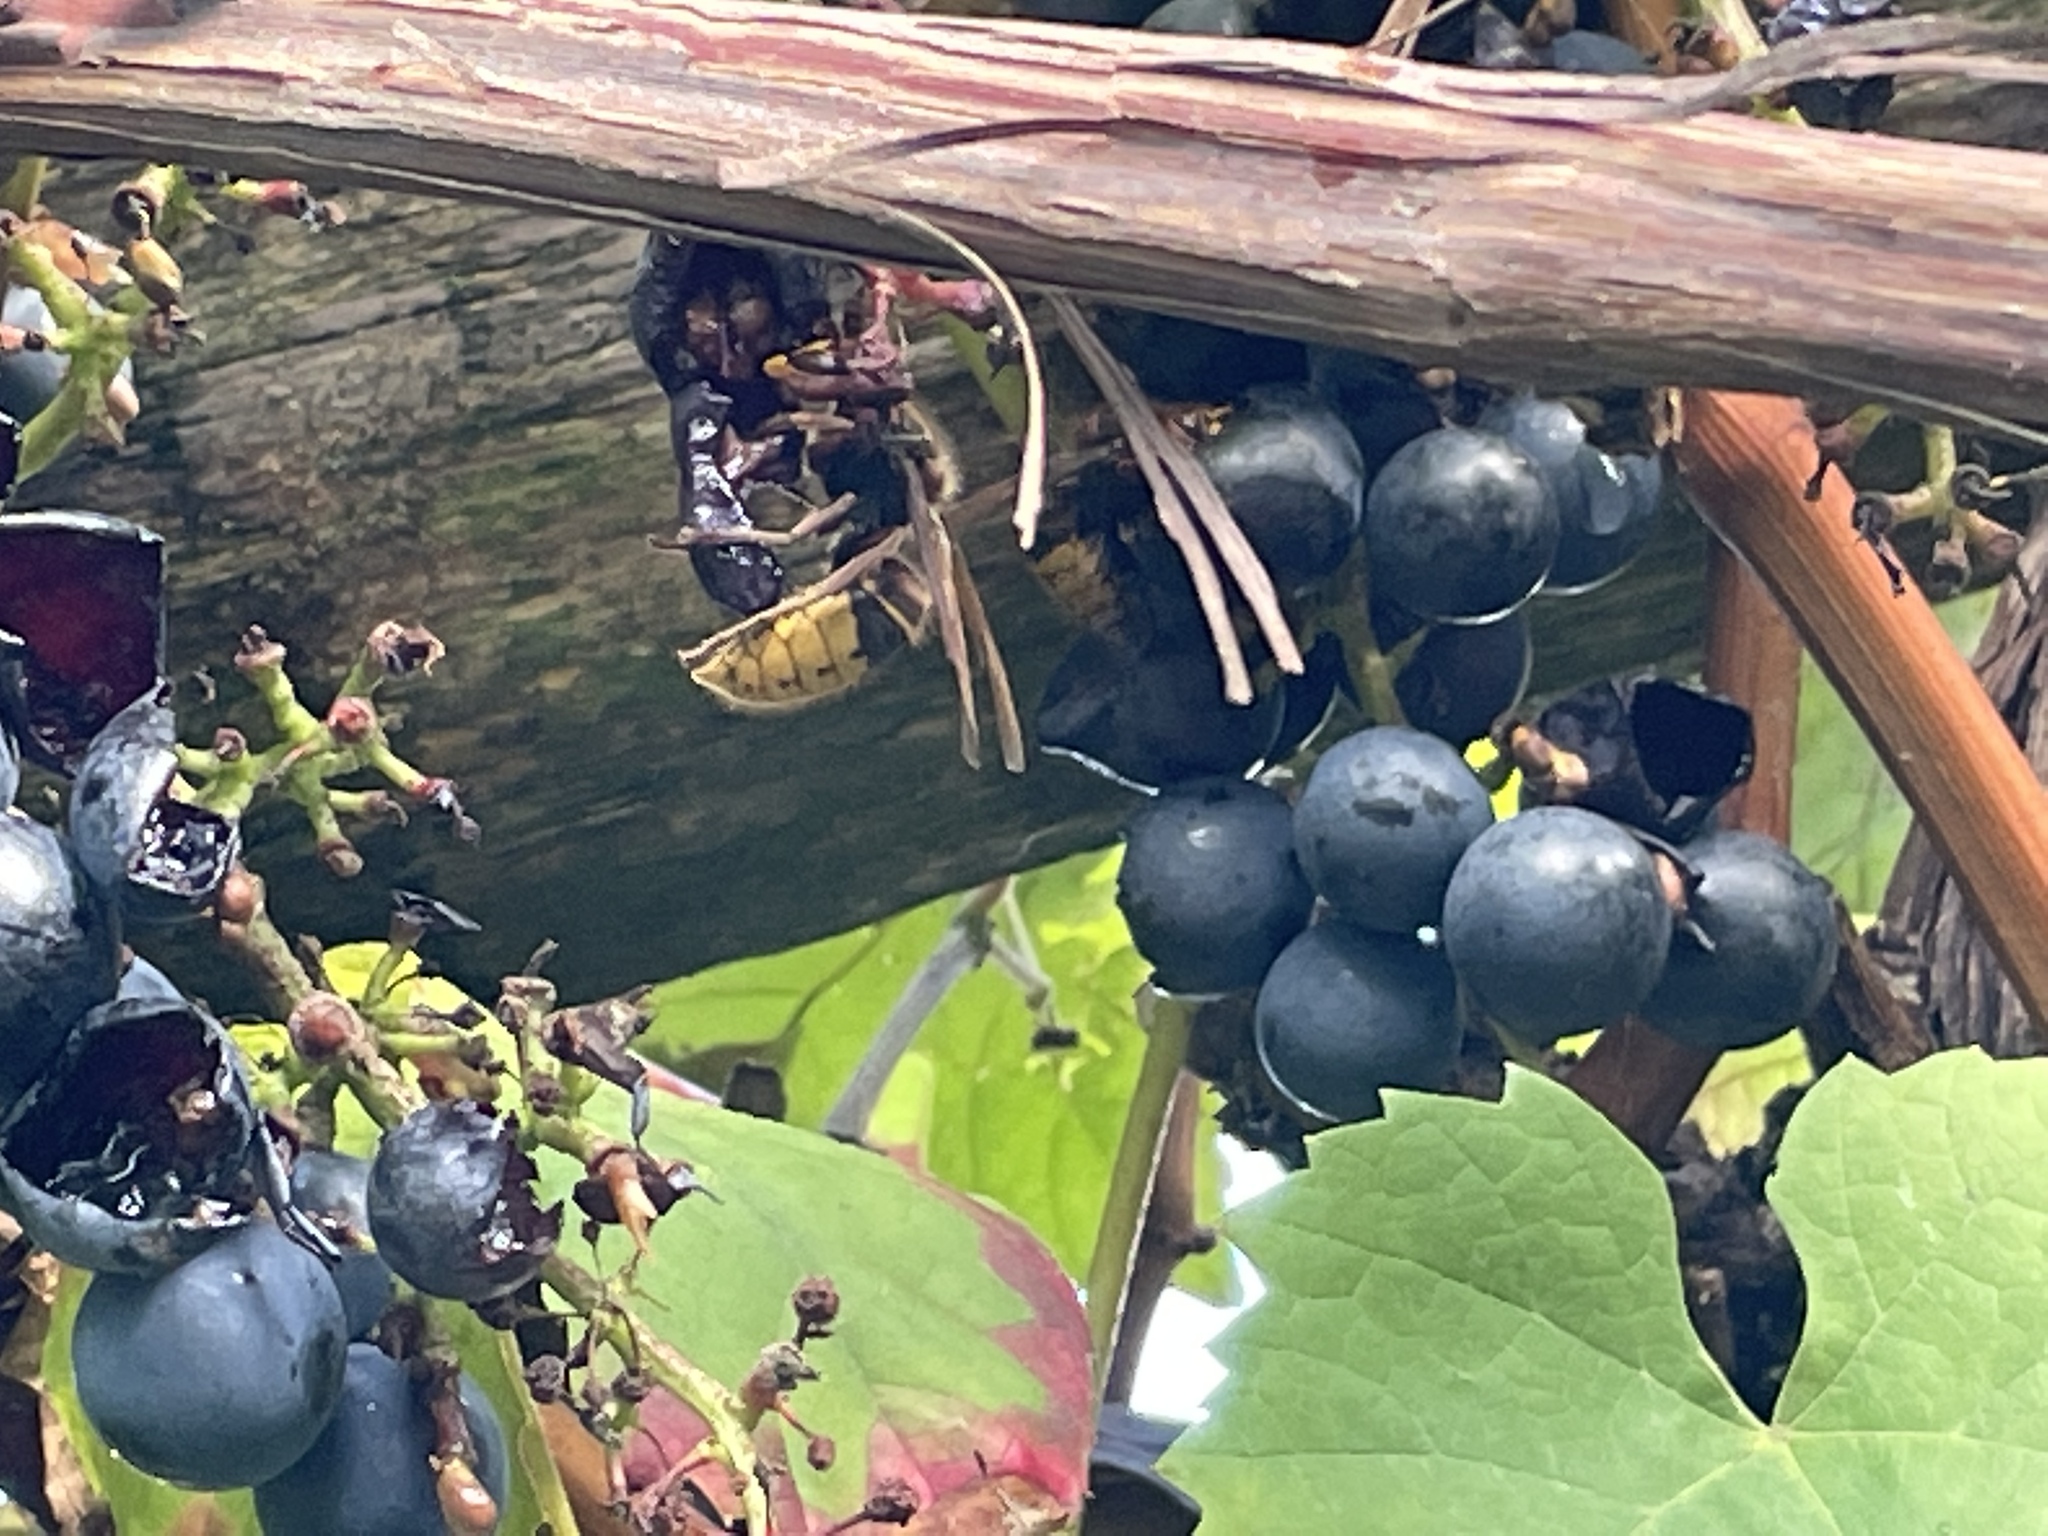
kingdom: Animalia
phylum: Arthropoda
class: Insecta
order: Hymenoptera
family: Vespidae
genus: Vespa
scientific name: Vespa crabro
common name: Hornet
